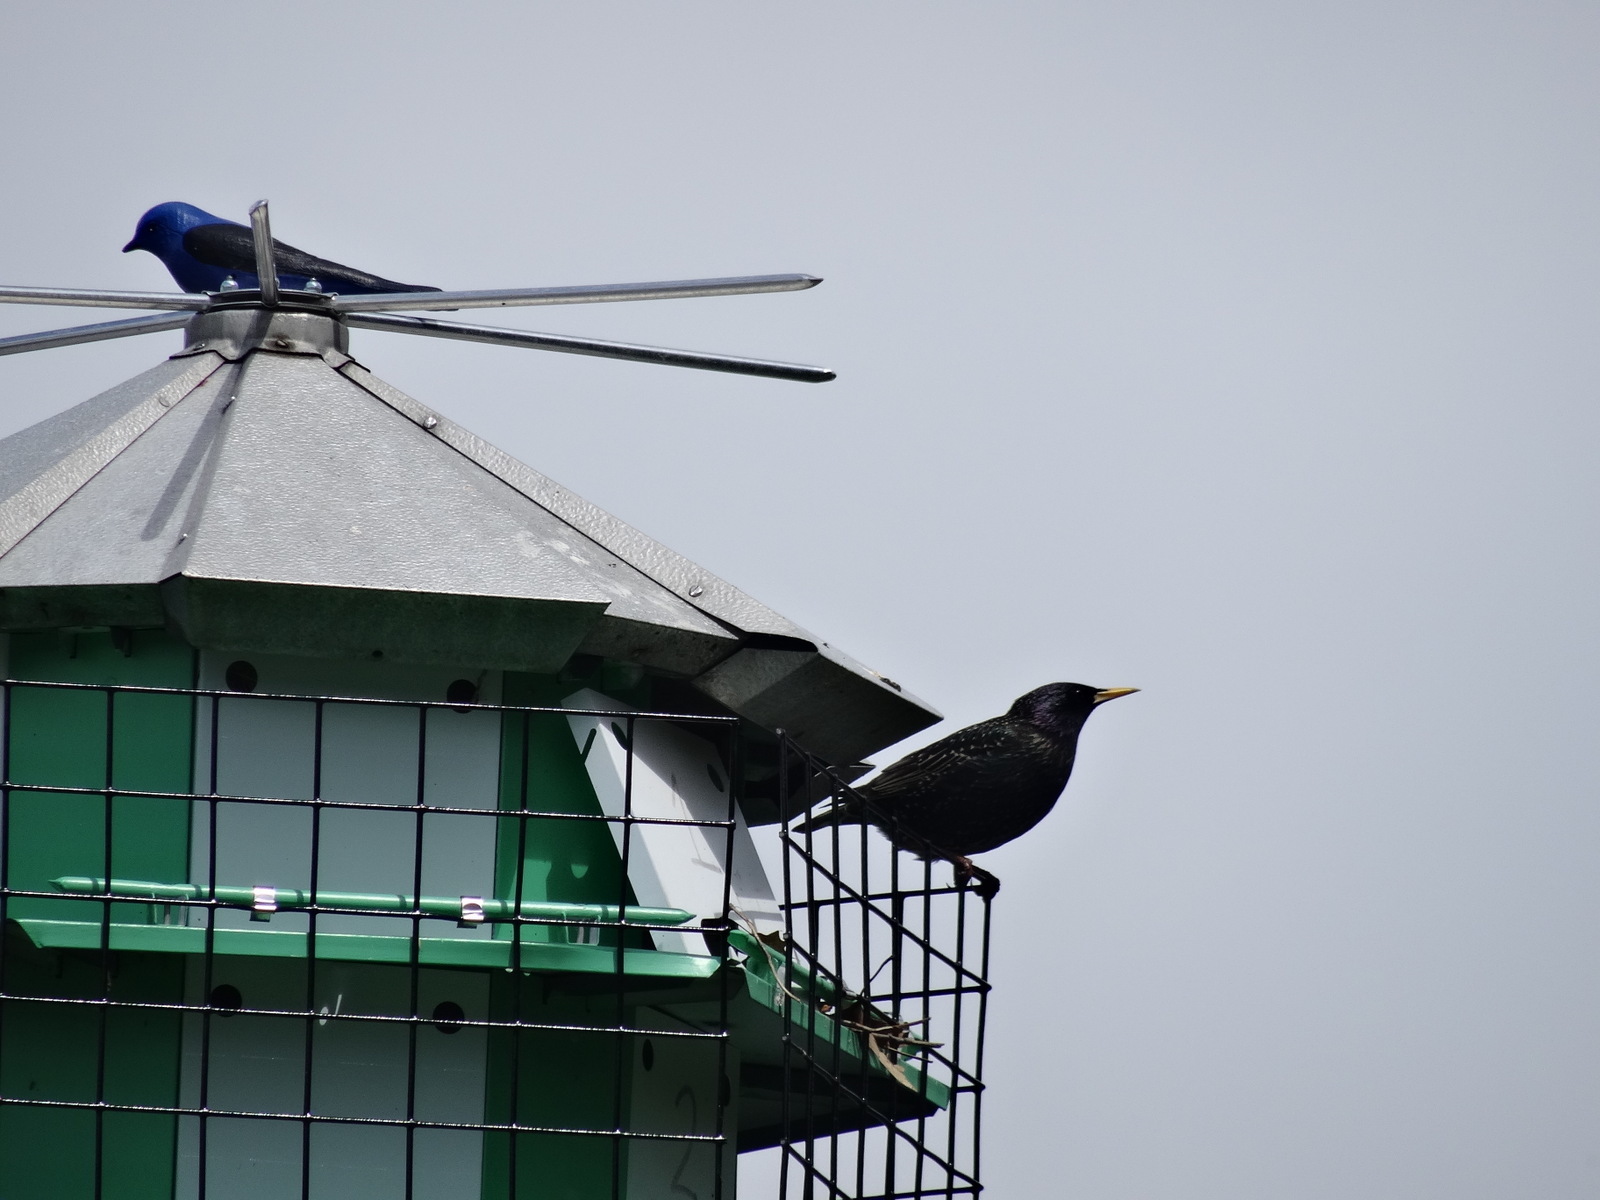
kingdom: Animalia
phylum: Chordata
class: Aves
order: Passeriformes
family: Sturnidae
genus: Sturnus
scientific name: Sturnus vulgaris
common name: Common starling
